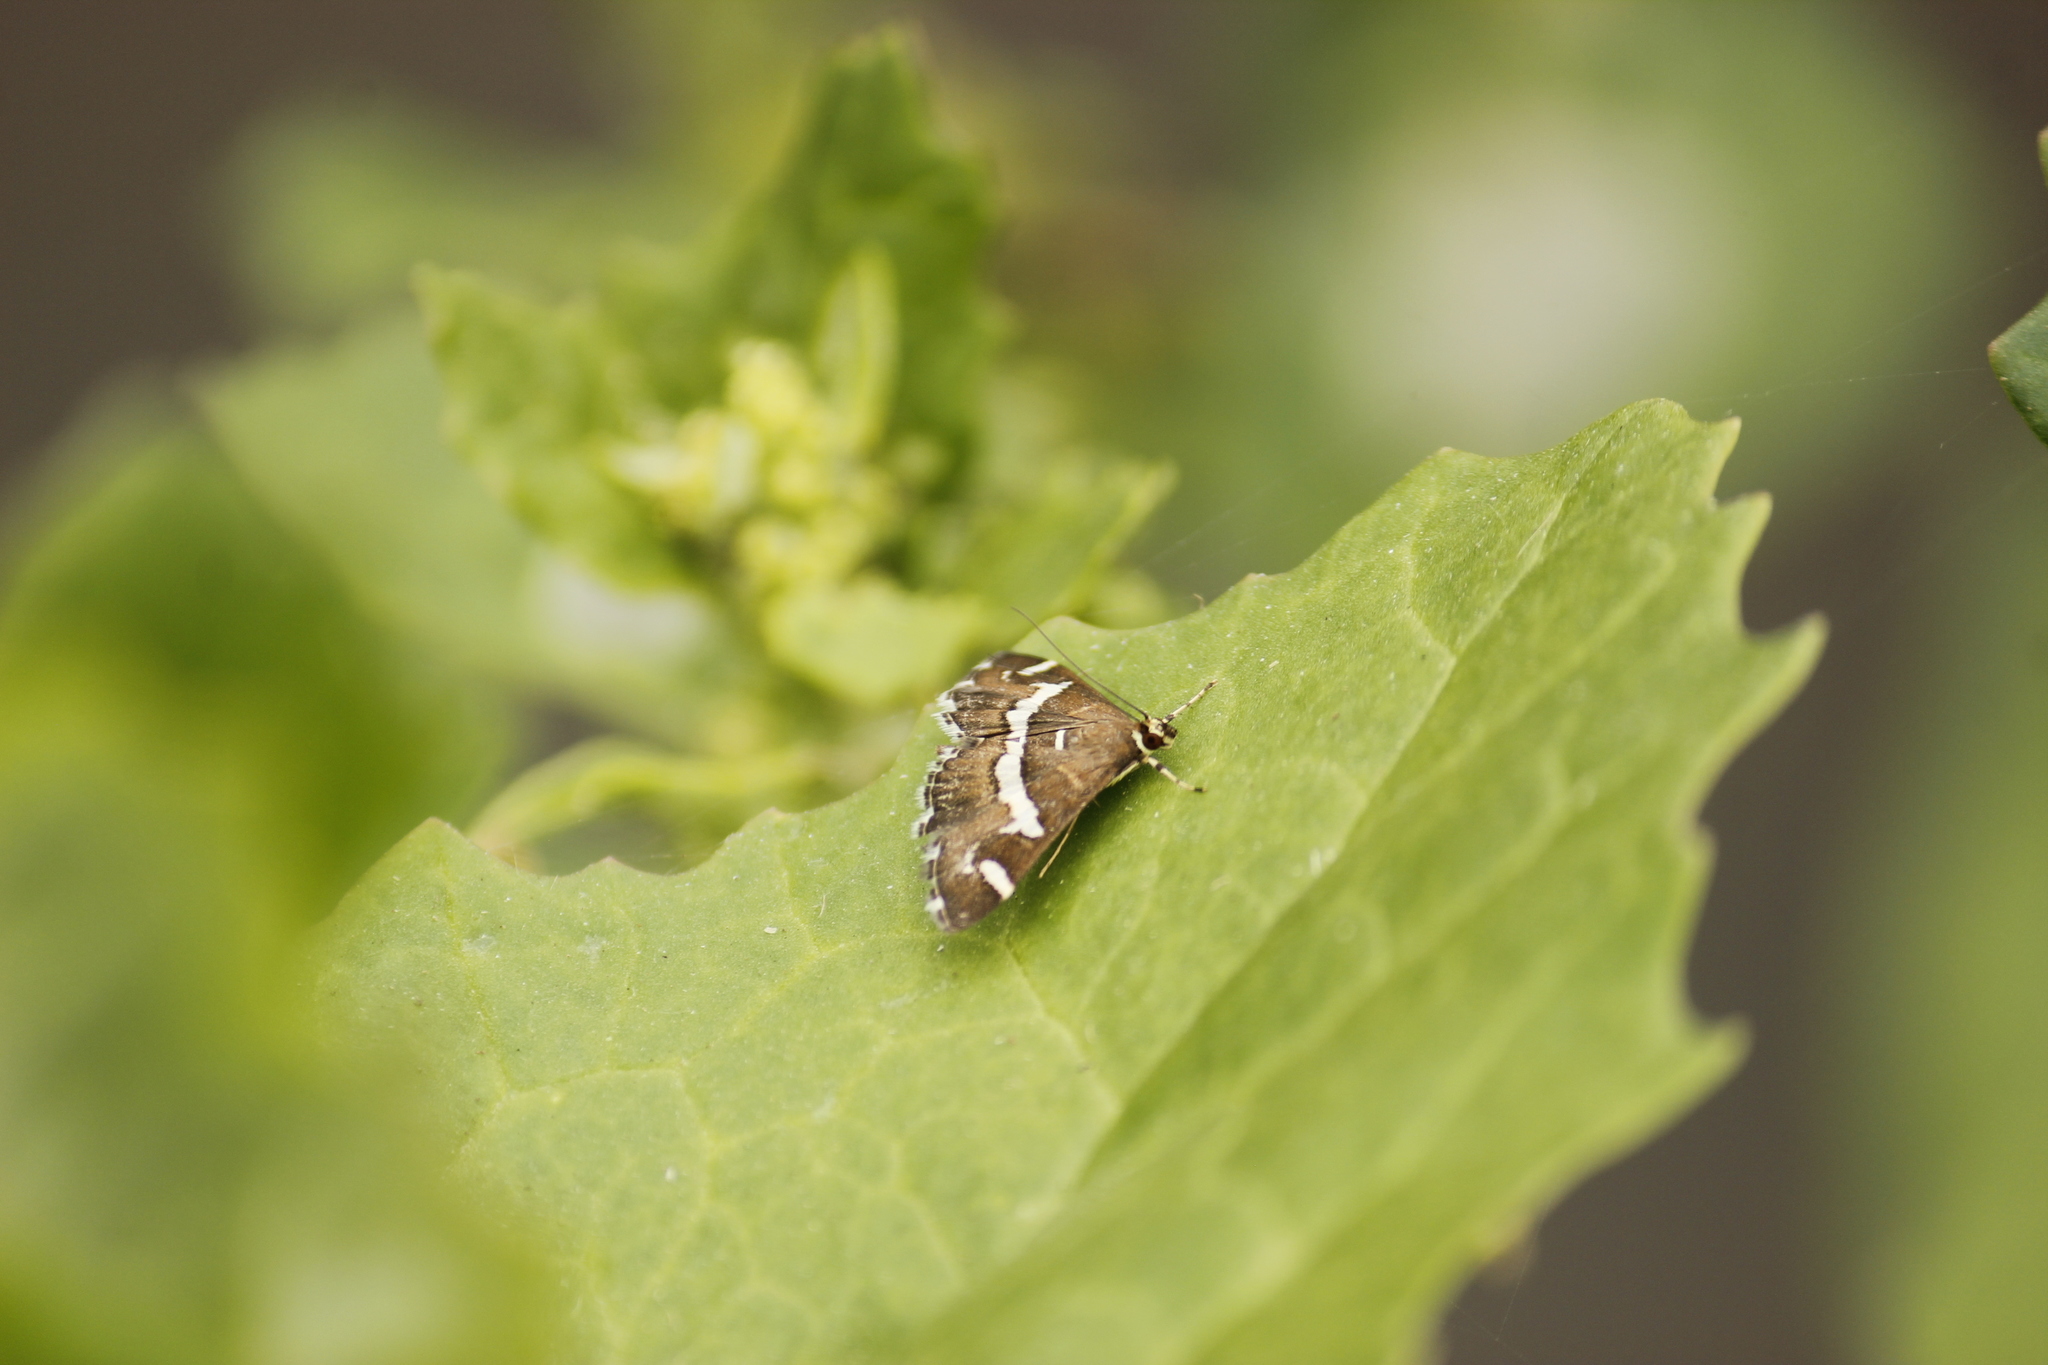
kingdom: Animalia
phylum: Arthropoda
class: Insecta
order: Lepidoptera
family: Crambidae
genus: Spoladea
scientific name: Spoladea recurvalis
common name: Beet webworm moth
